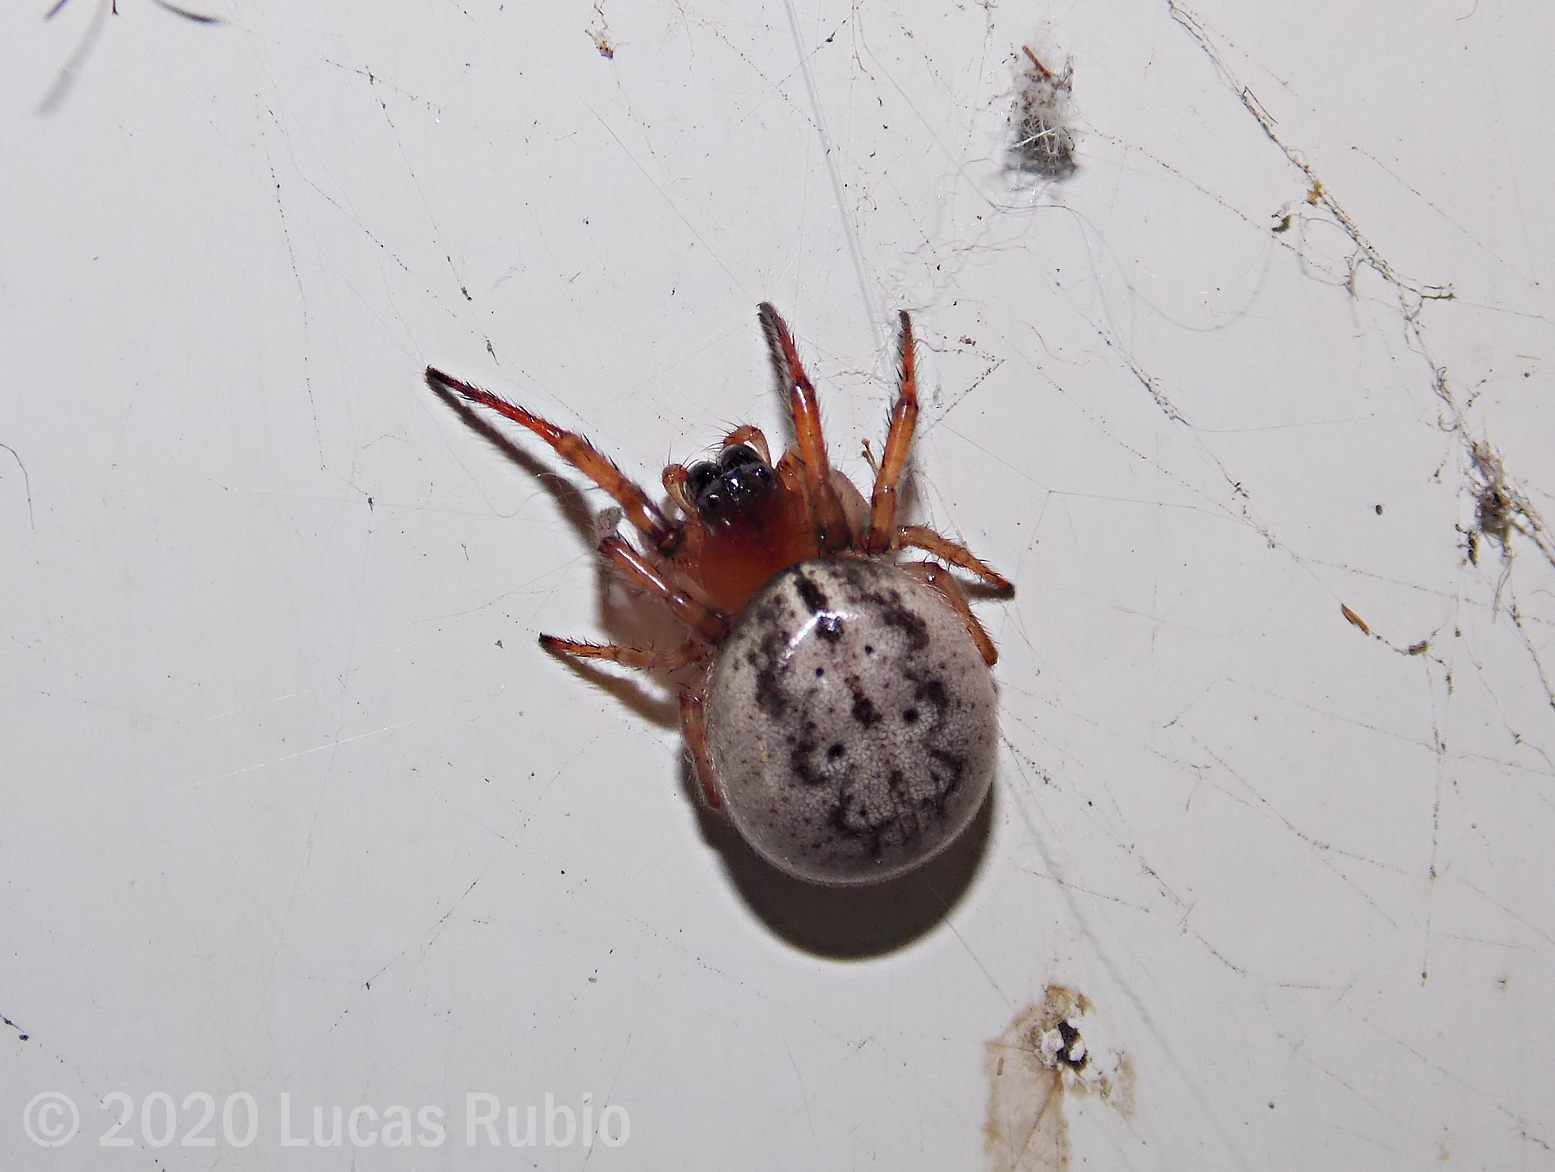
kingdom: Animalia
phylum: Arthropoda
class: Arachnida
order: Araneae
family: Araneidae
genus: Metazygia
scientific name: Metazygia
